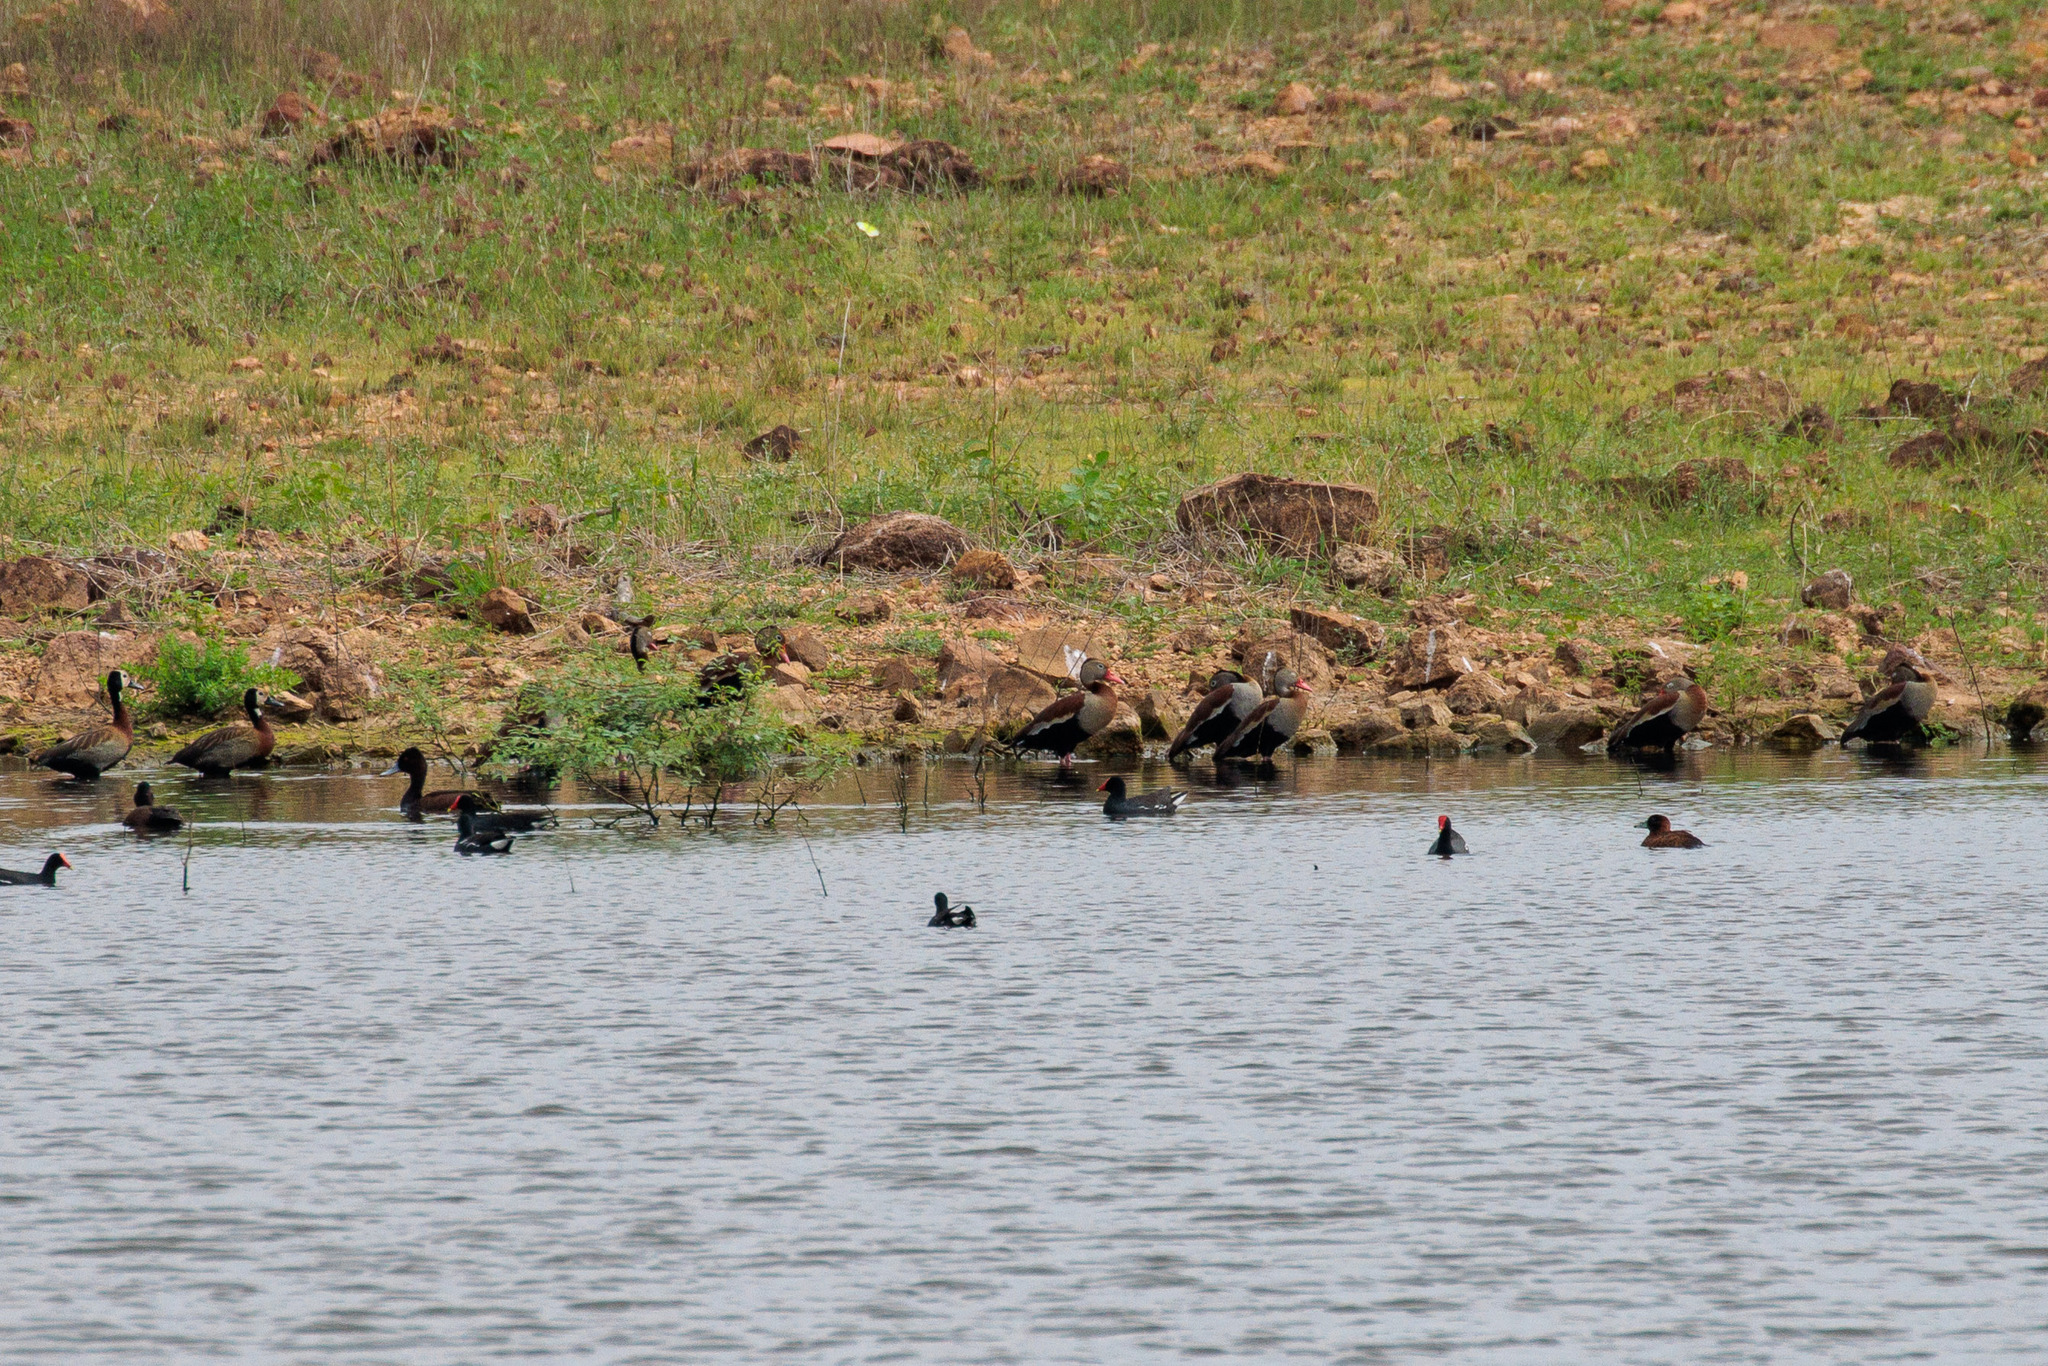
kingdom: Animalia
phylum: Chordata
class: Aves
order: Anseriformes
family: Anatidae
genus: Dendrocygna
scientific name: Dendrocygna autumnalis
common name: Black-bellied whistling duck
